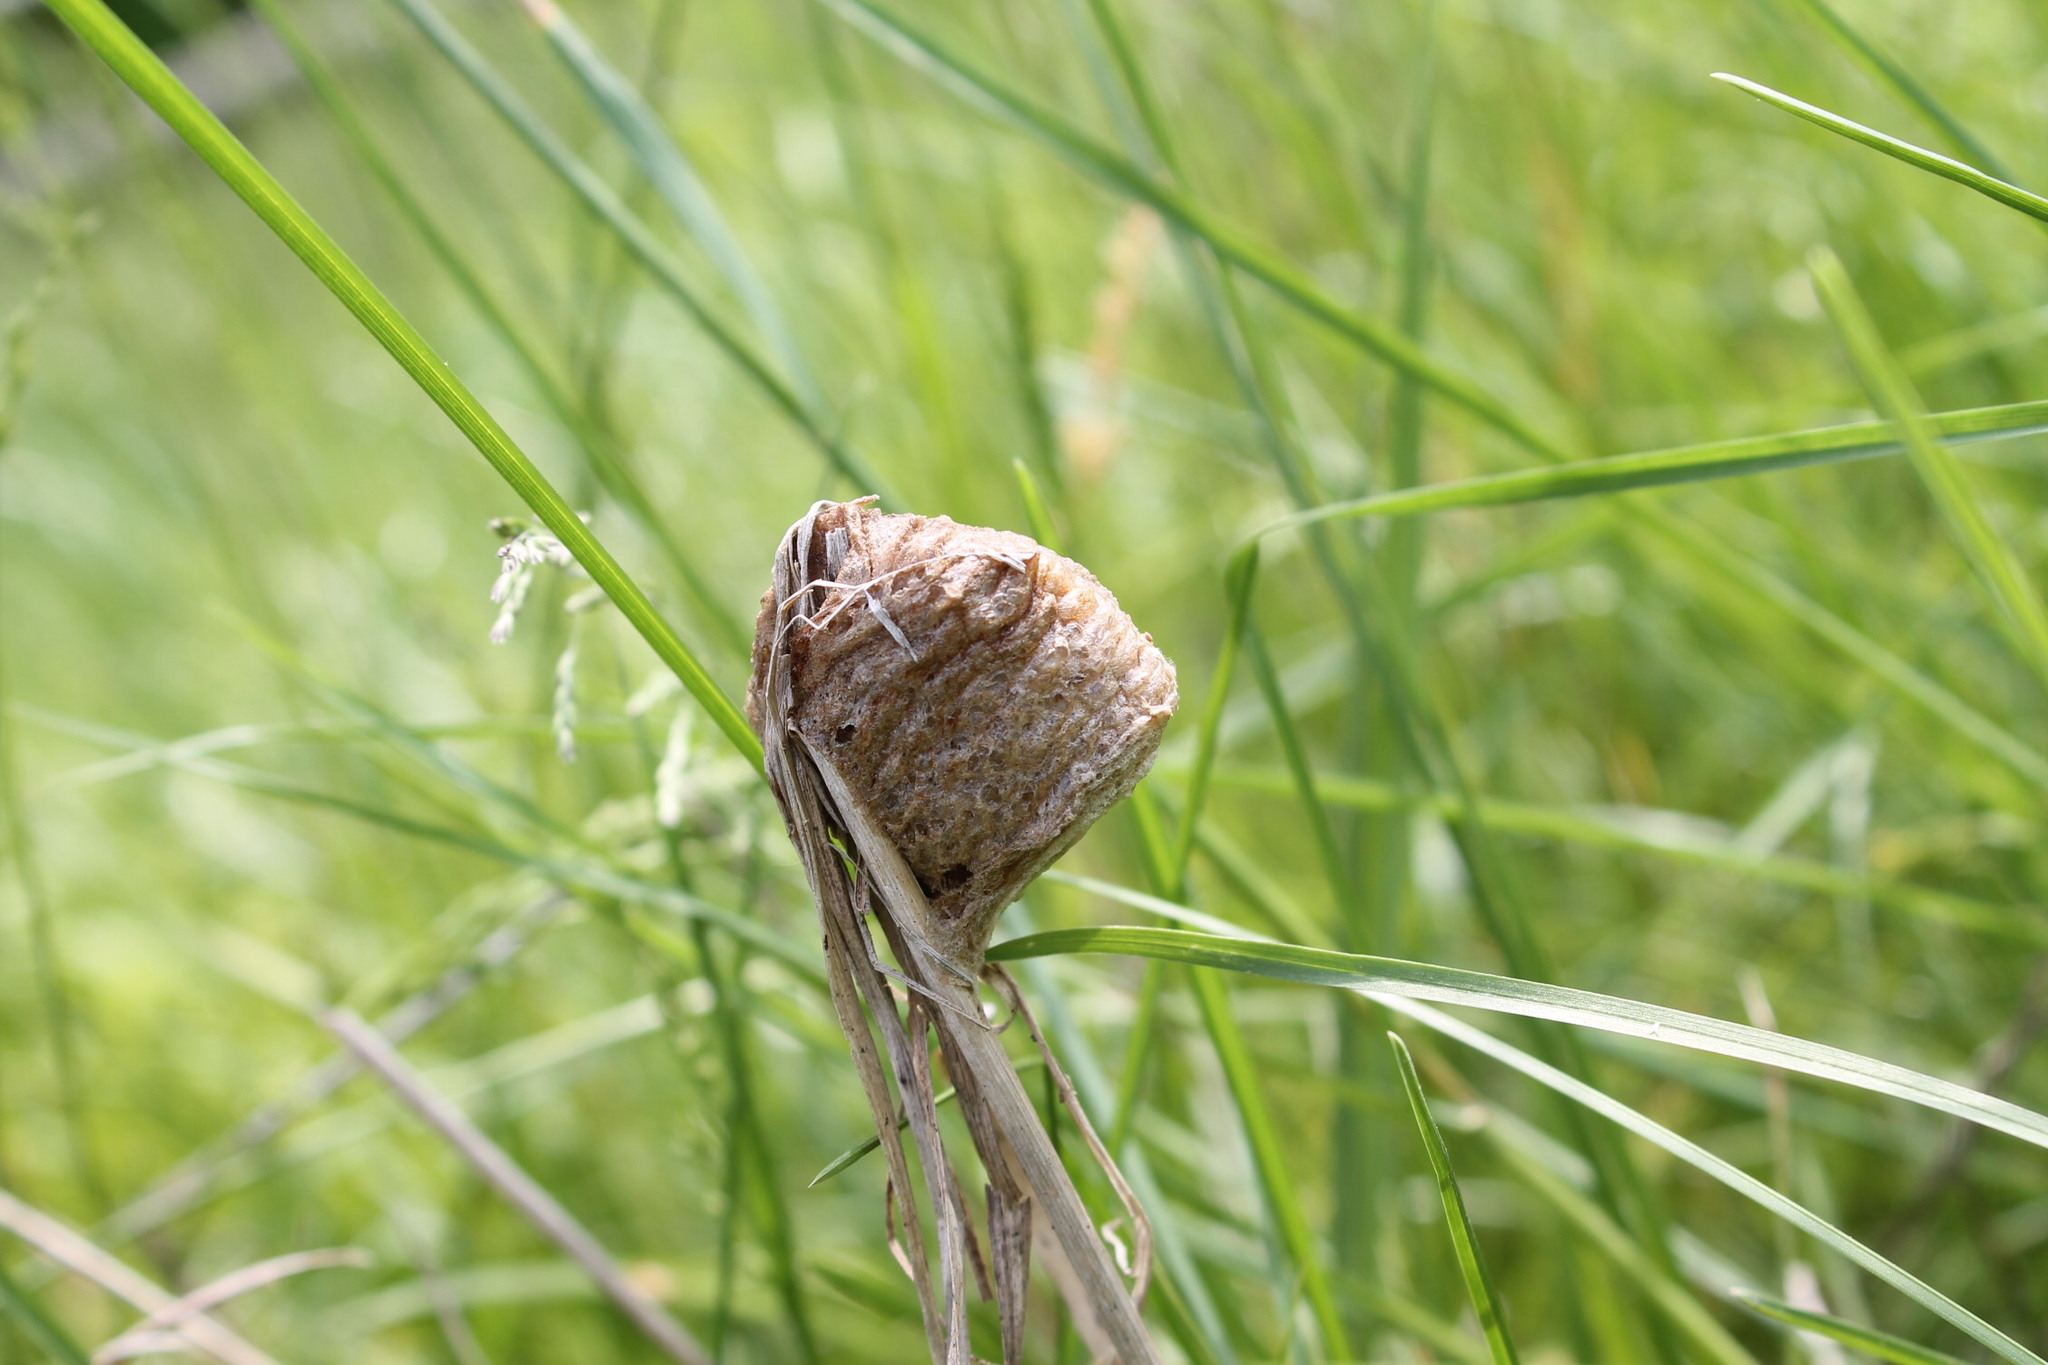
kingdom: Animalia
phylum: Arthropoda
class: Insecta
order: Mantodea
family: Mantidae
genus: Tenodera
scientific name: Tenodera sinensis
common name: Chinese mantis
